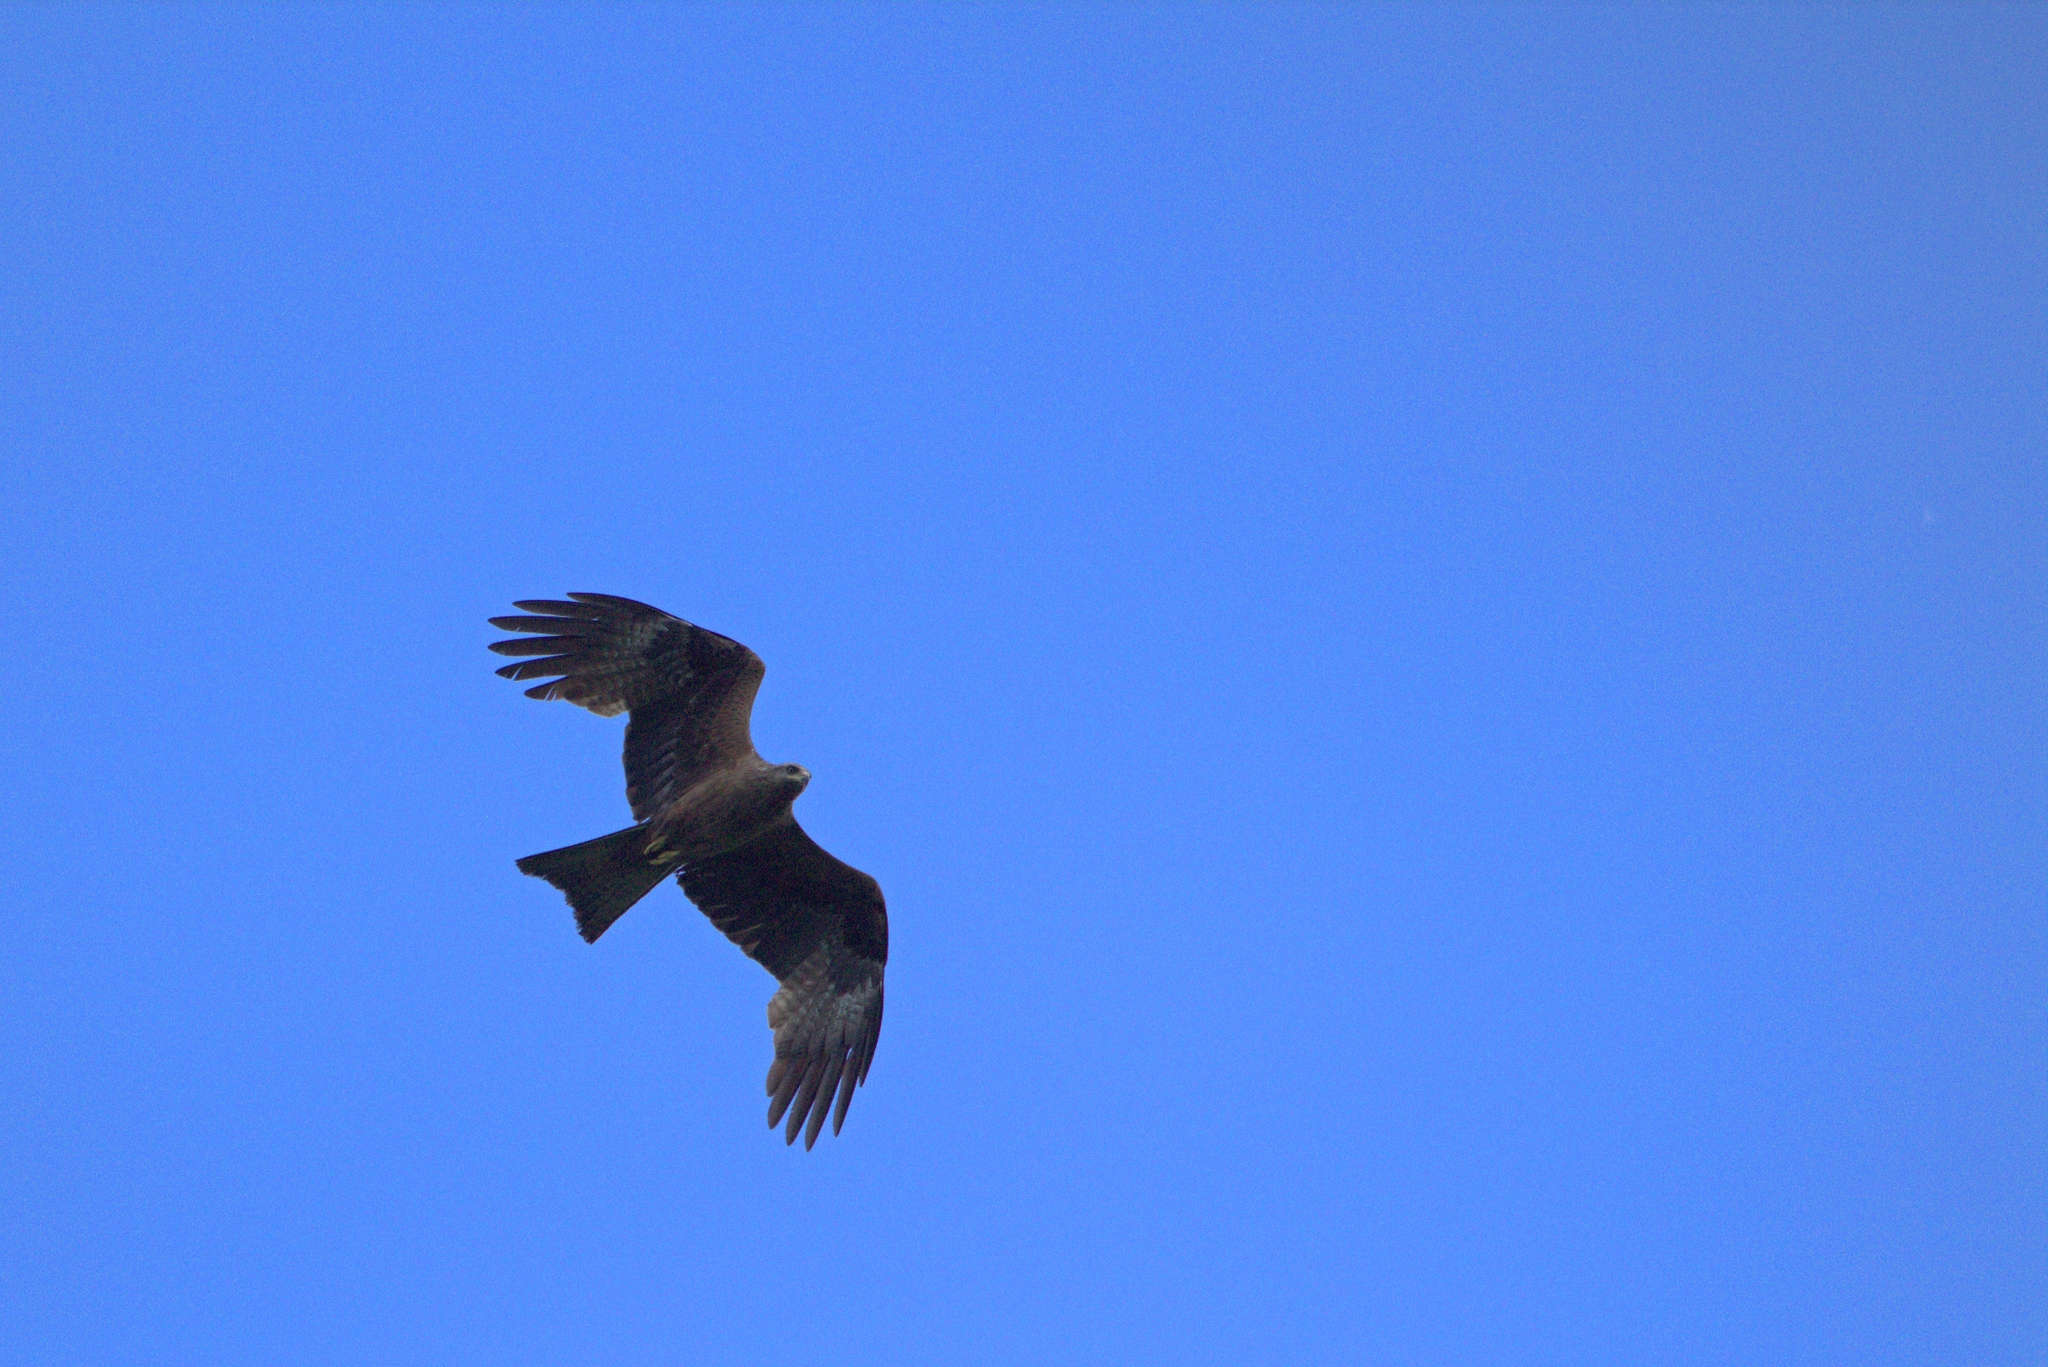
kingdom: Animalia
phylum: Chordata
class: Aves
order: Accipitriformes
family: Accipitridae
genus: Milvus
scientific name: Milvus migrans
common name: Black kite
